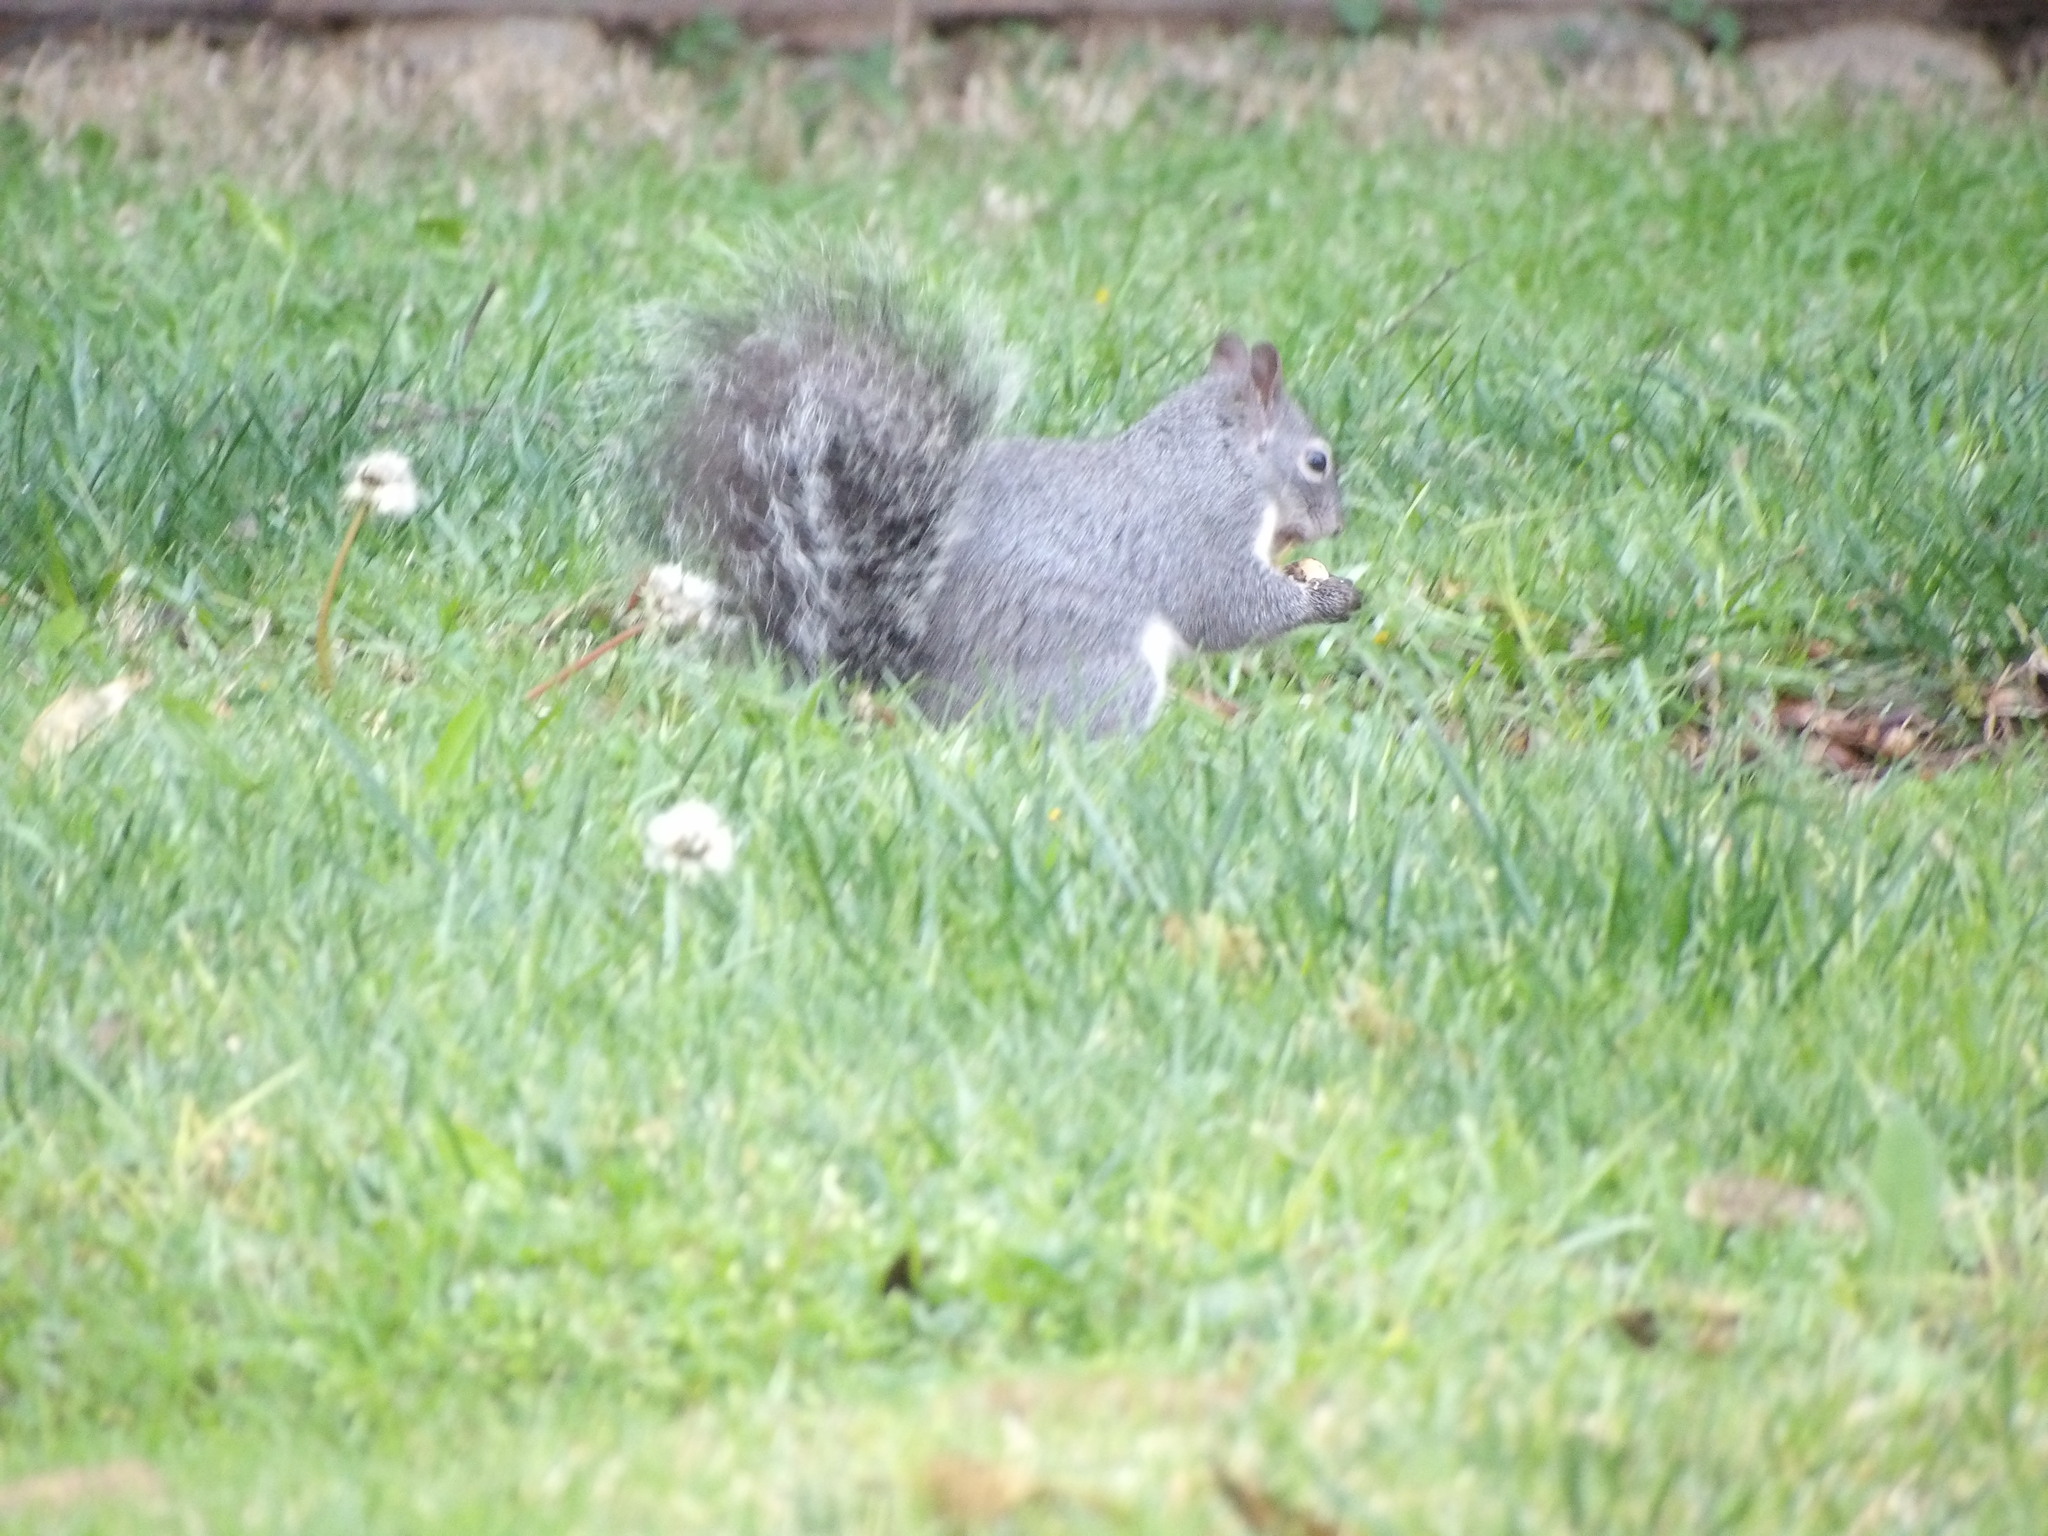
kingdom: Animalia
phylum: Chordata
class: Mammalia
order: Rodentia
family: Sciuridae
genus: Sciurus
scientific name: Sciurus griseus
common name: Western gray squirrel
